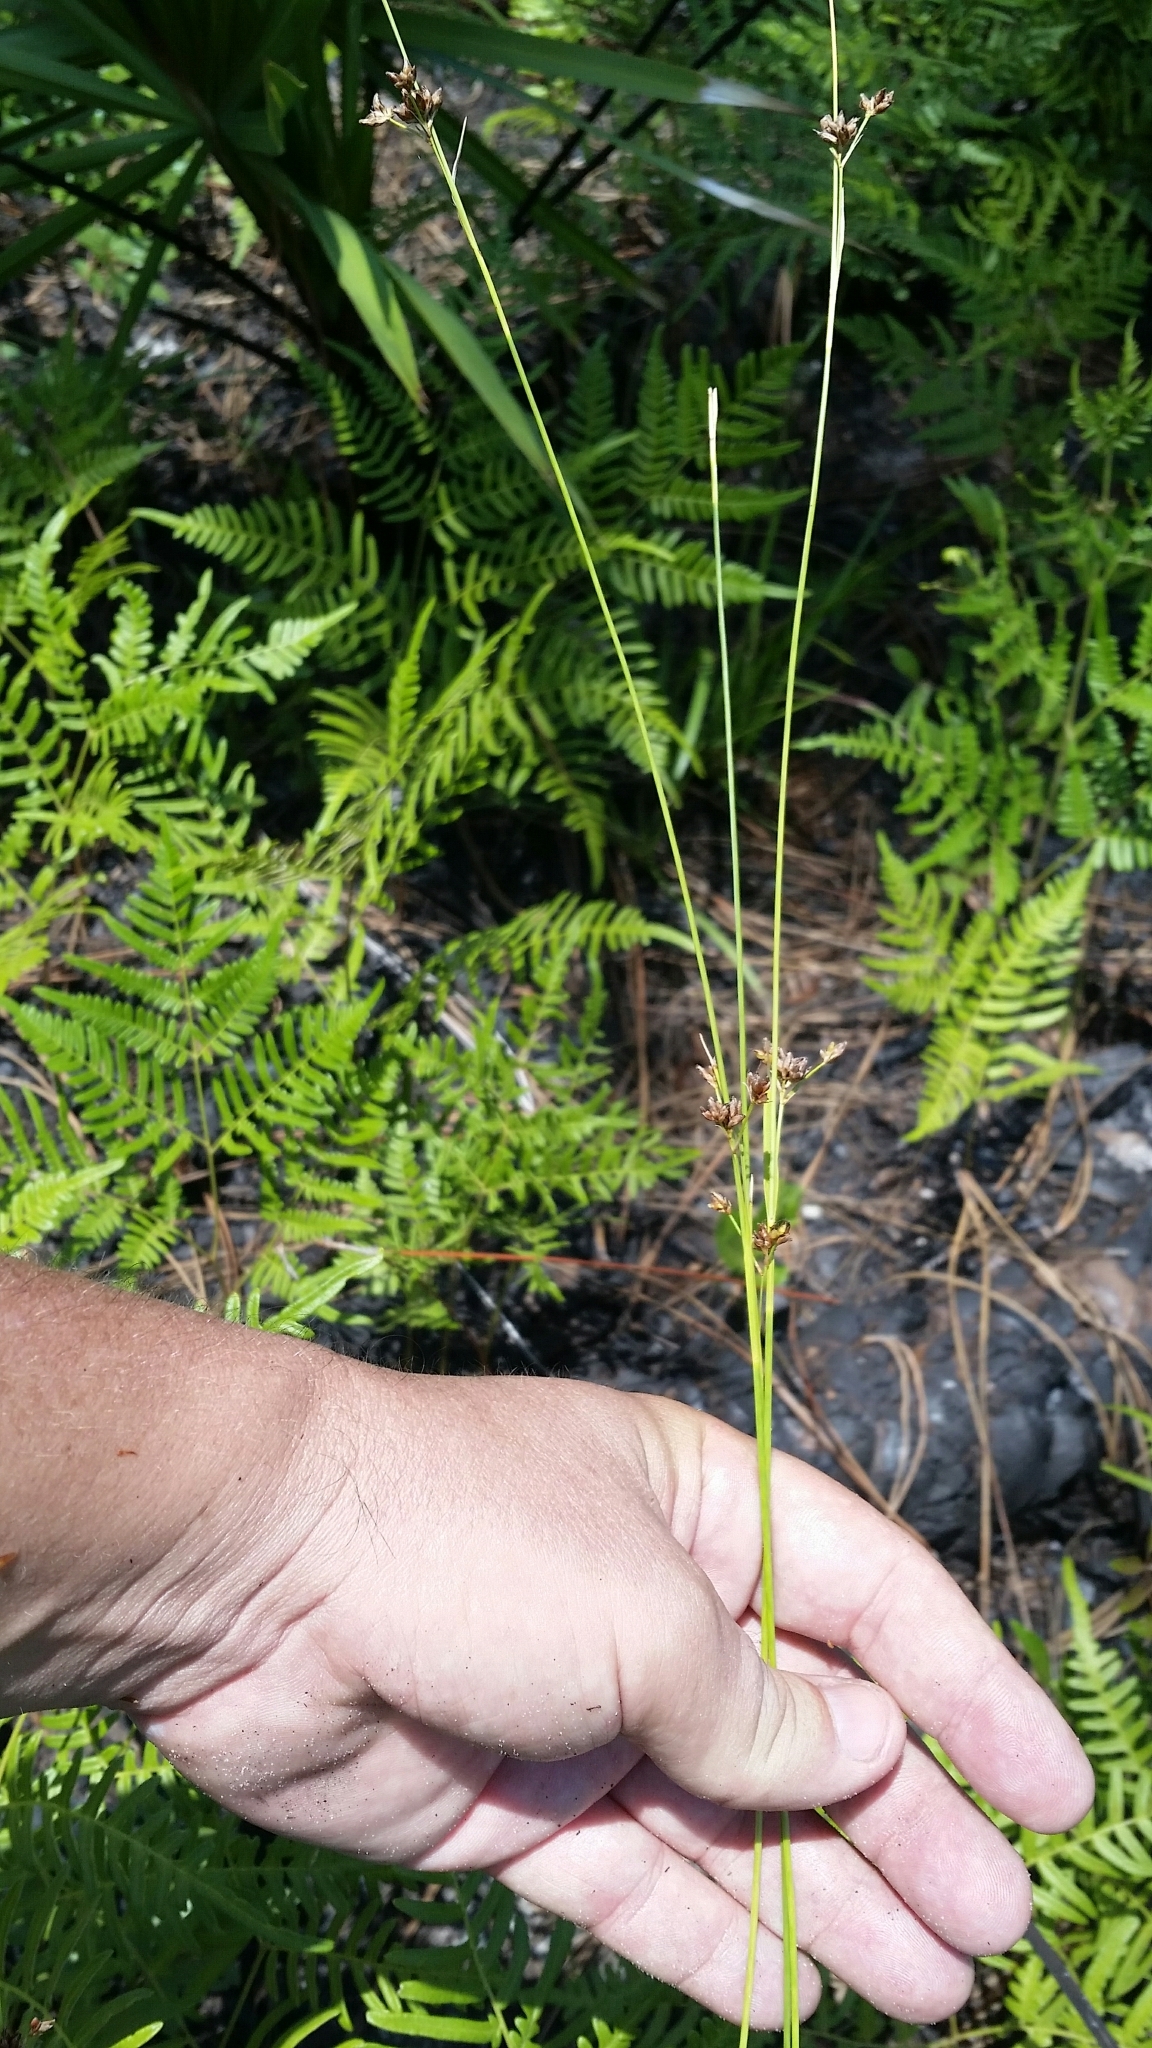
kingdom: Plantae
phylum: Tracheophyta
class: Liliopsida
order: Poales
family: Cyperaceae
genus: Rhynchospora
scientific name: Rhynchospora recognita
